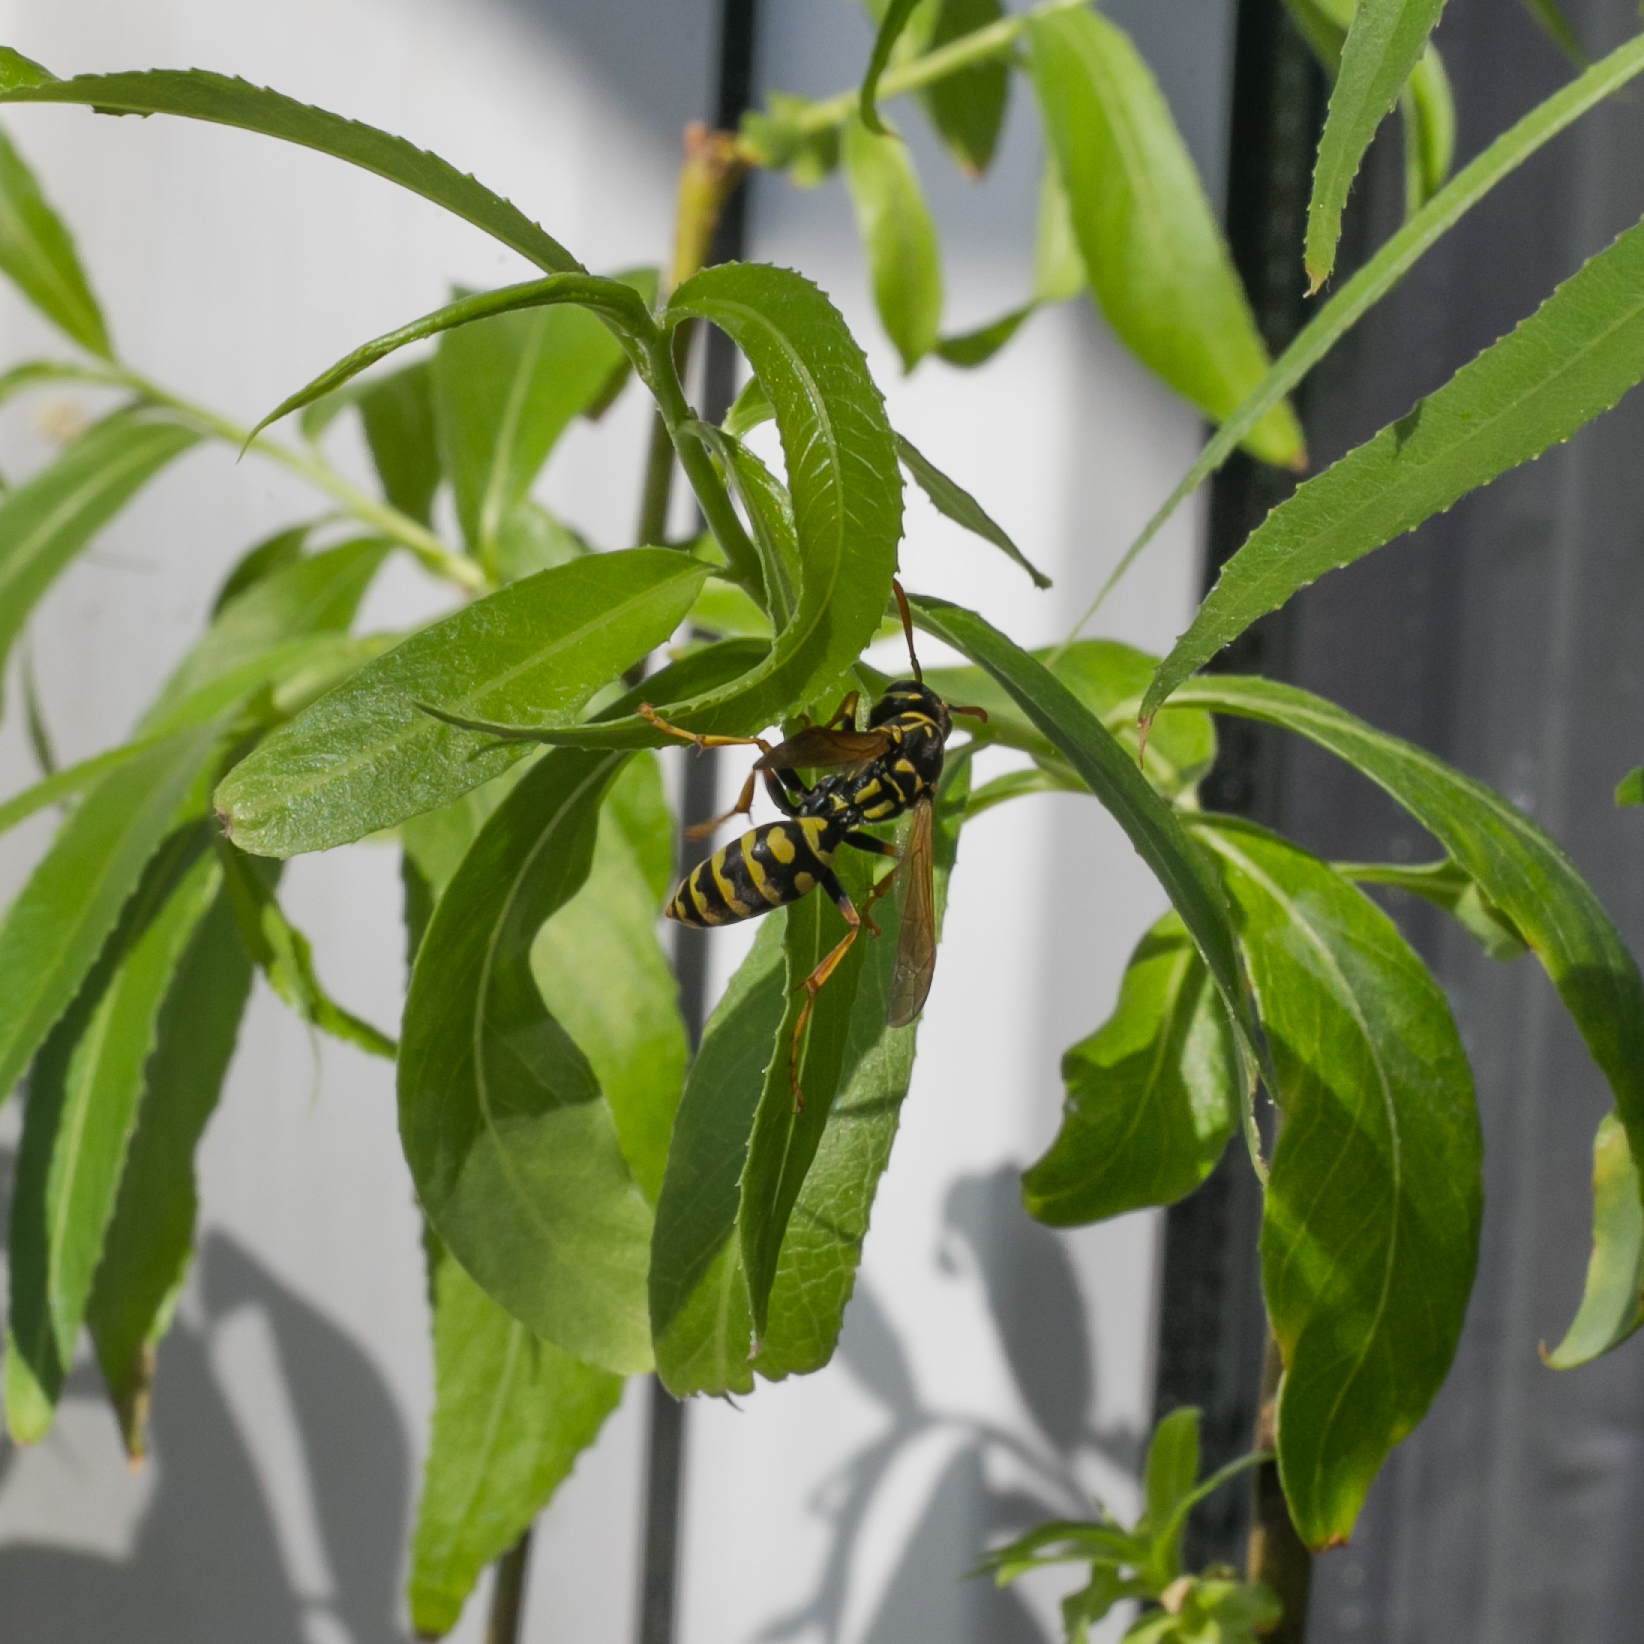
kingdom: Animalia
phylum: Arthropoda
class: Insecta
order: Hymenoptera
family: Eumenidae
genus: Polistes
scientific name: Polistes dominula
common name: Paper wasp
